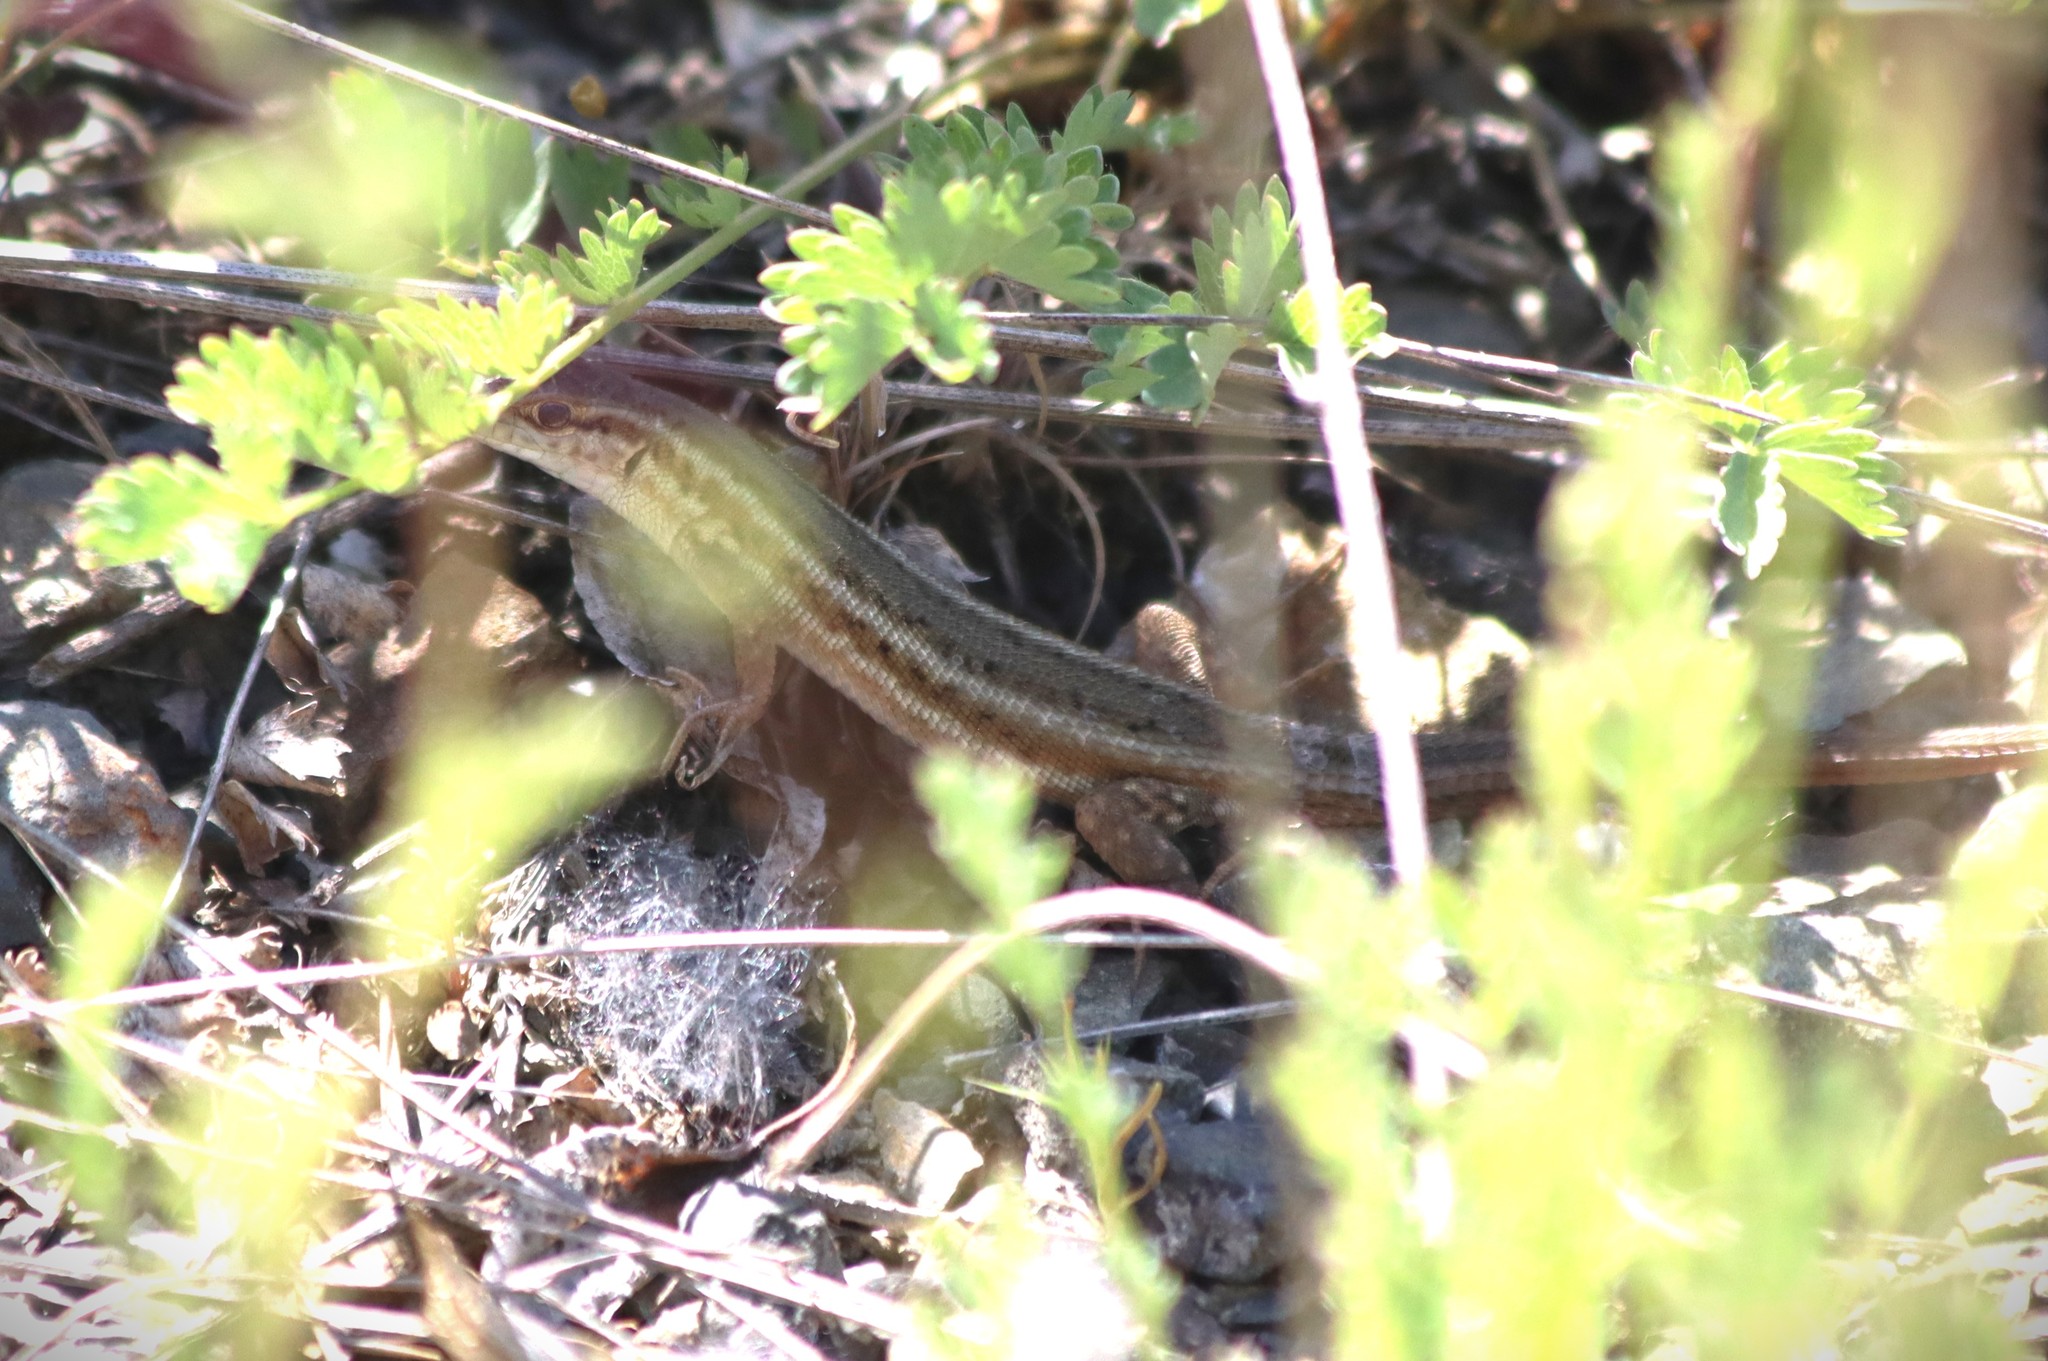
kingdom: Animalia
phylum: Chordata
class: Squamata
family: Lacertidae
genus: Ophisops
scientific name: Ophisops elegans
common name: Snake-eyed lizard
